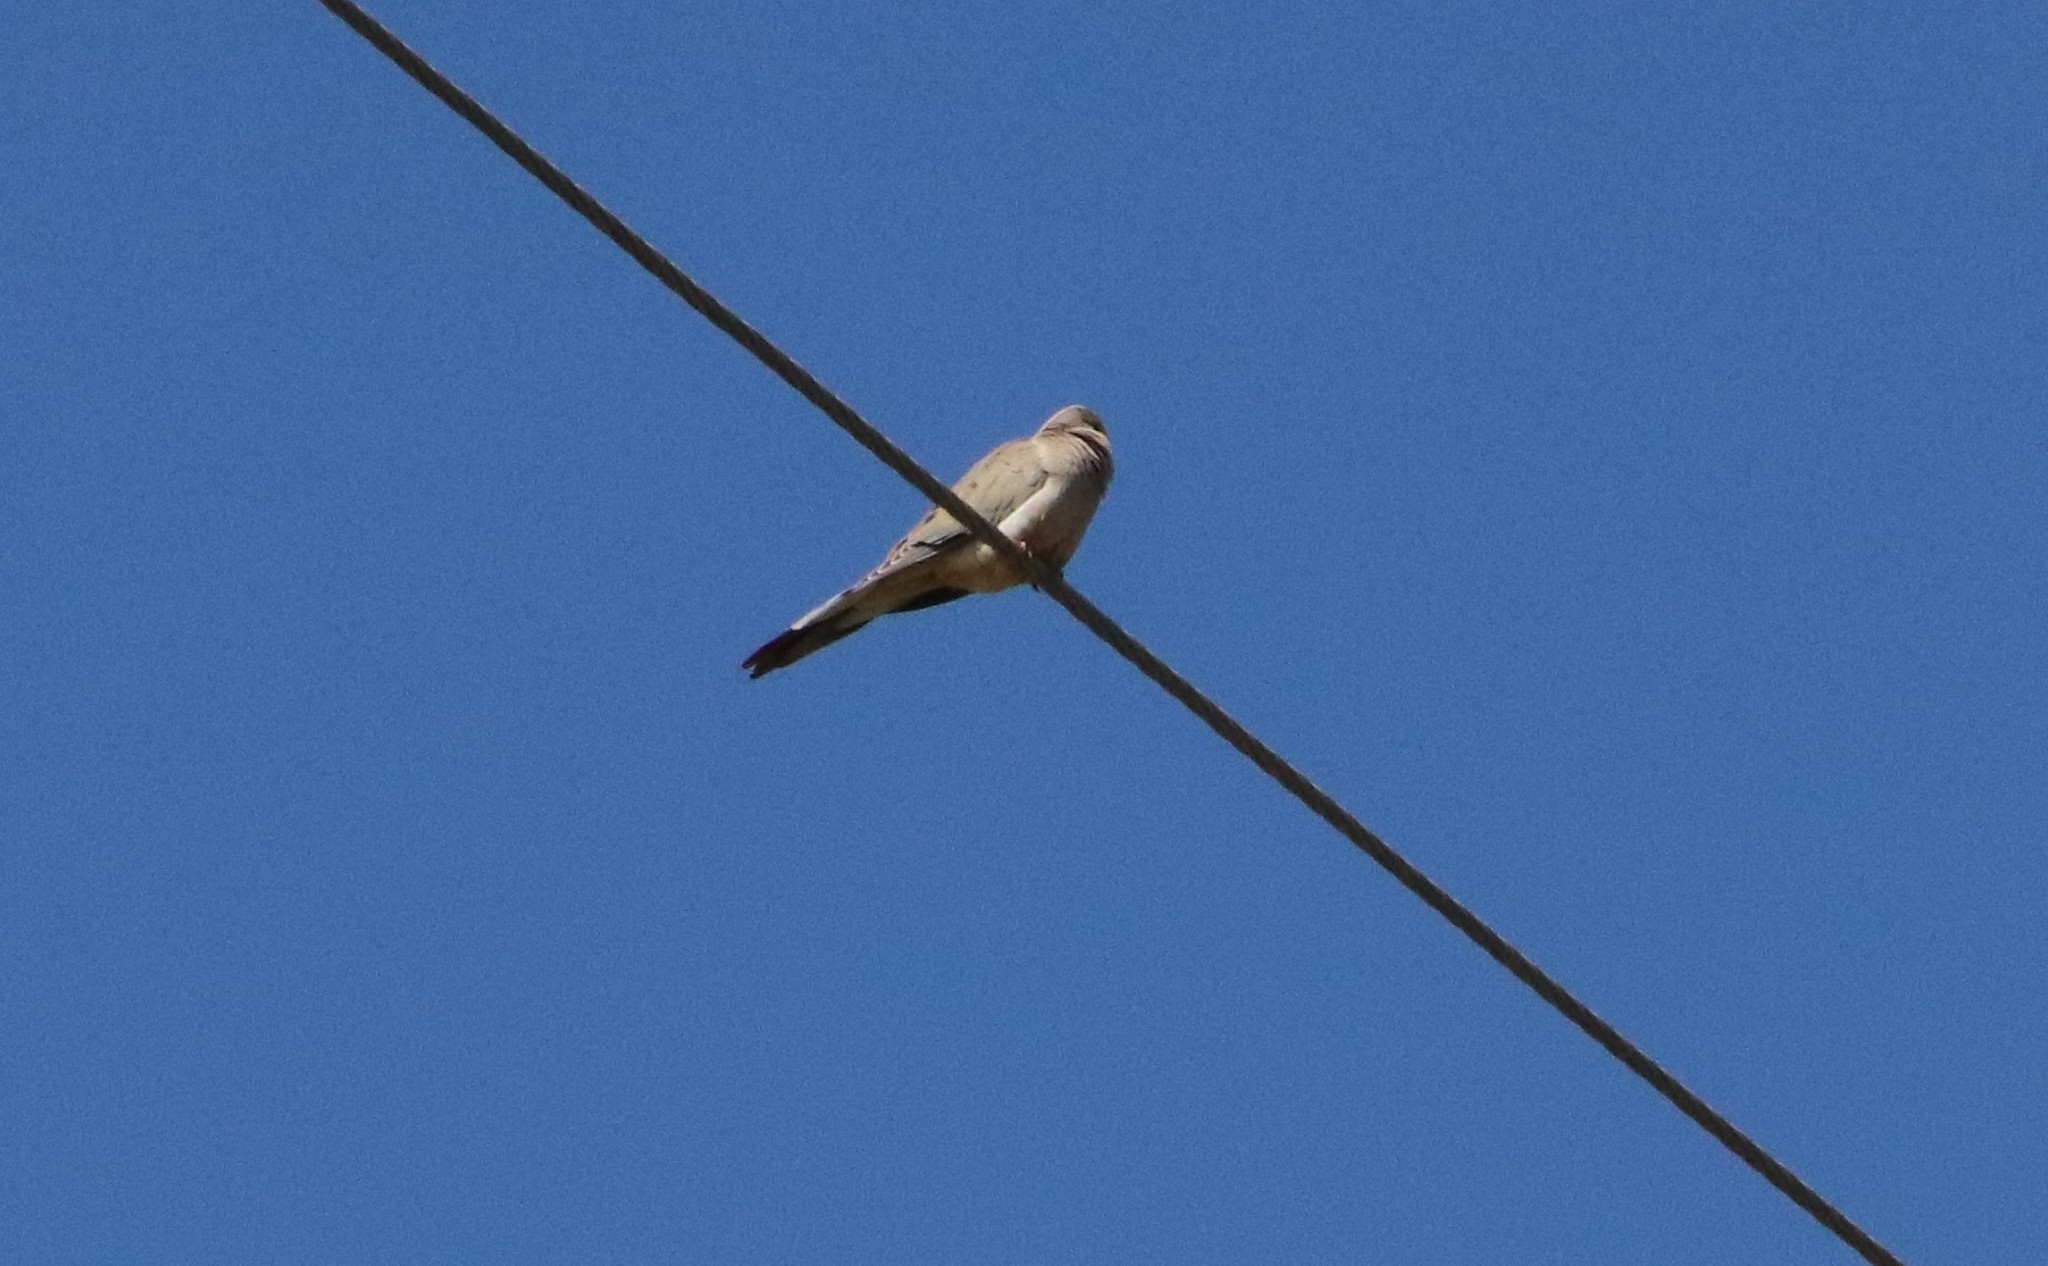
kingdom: Animalia
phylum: Chordata
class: Aves
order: Columbiformes
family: Columbidae
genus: Zenaida
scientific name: Zenaida macroura
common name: Mourning dove
